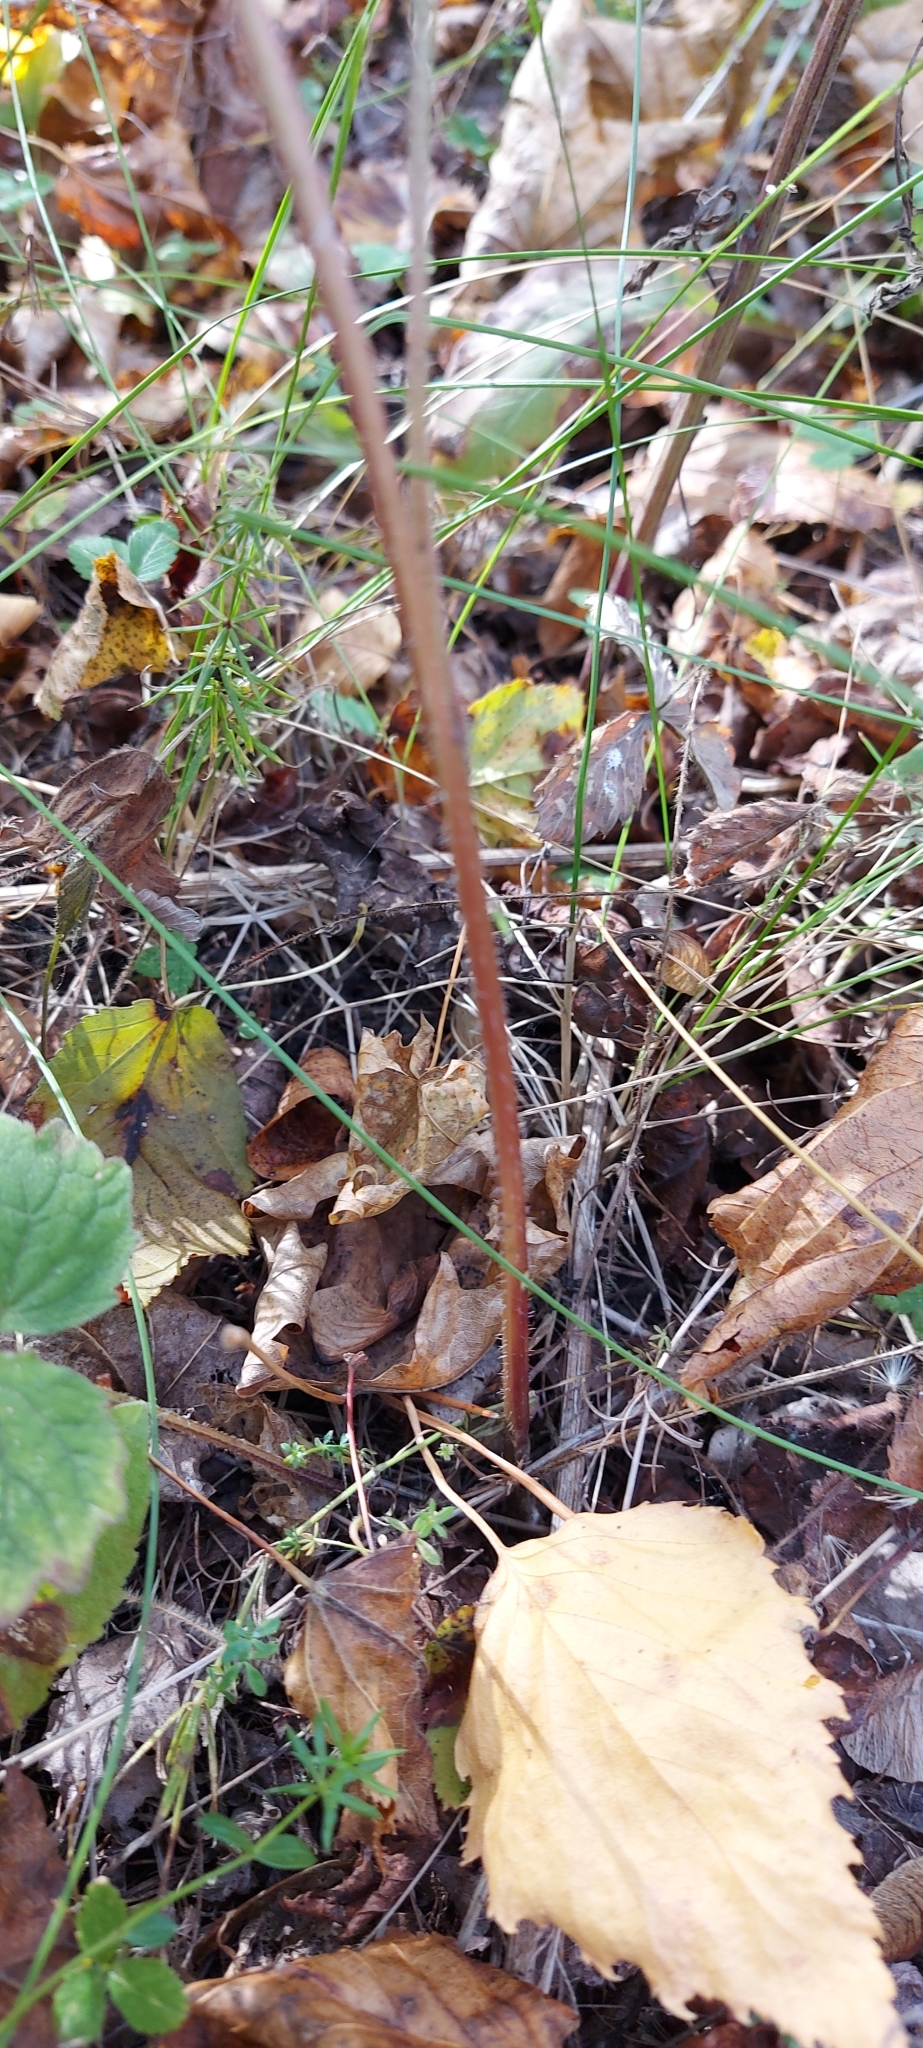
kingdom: Plantae
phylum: Tracheophyta
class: Magnoliopsida
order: Asterales
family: Campanulaceae
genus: Campanula
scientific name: Campanula trachelium
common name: Nettle-leaved bellflower
